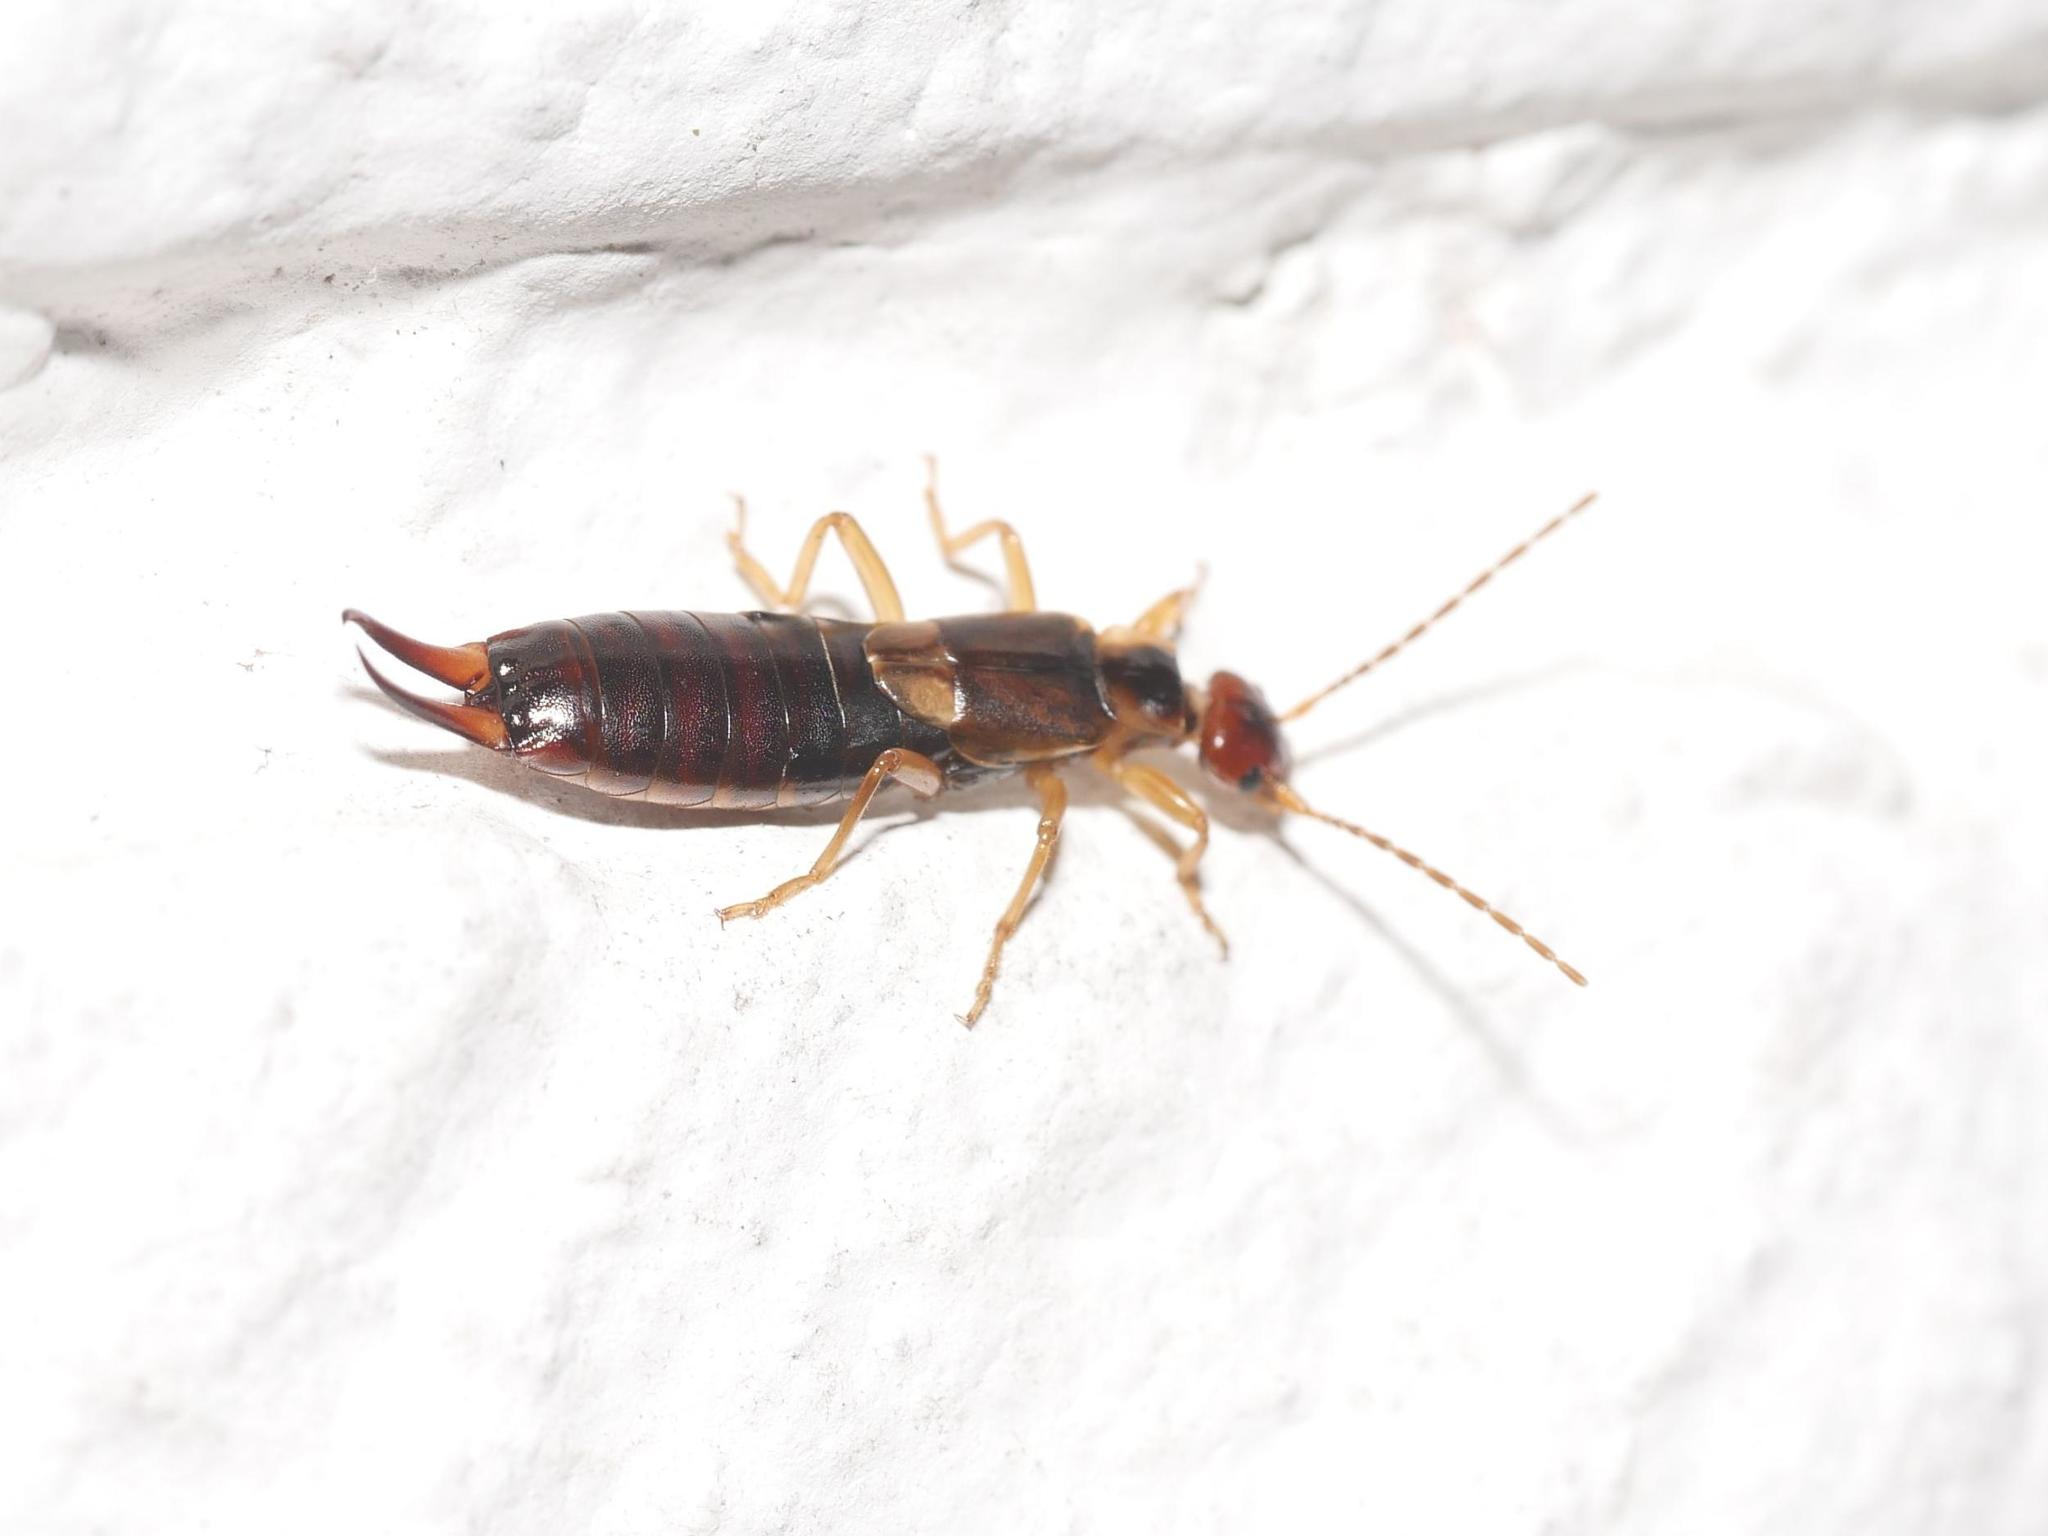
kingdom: Animalia
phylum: Arthropoda
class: Insecta
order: Dermaptera
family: Forficulidae
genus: Forficula
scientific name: Forficula
